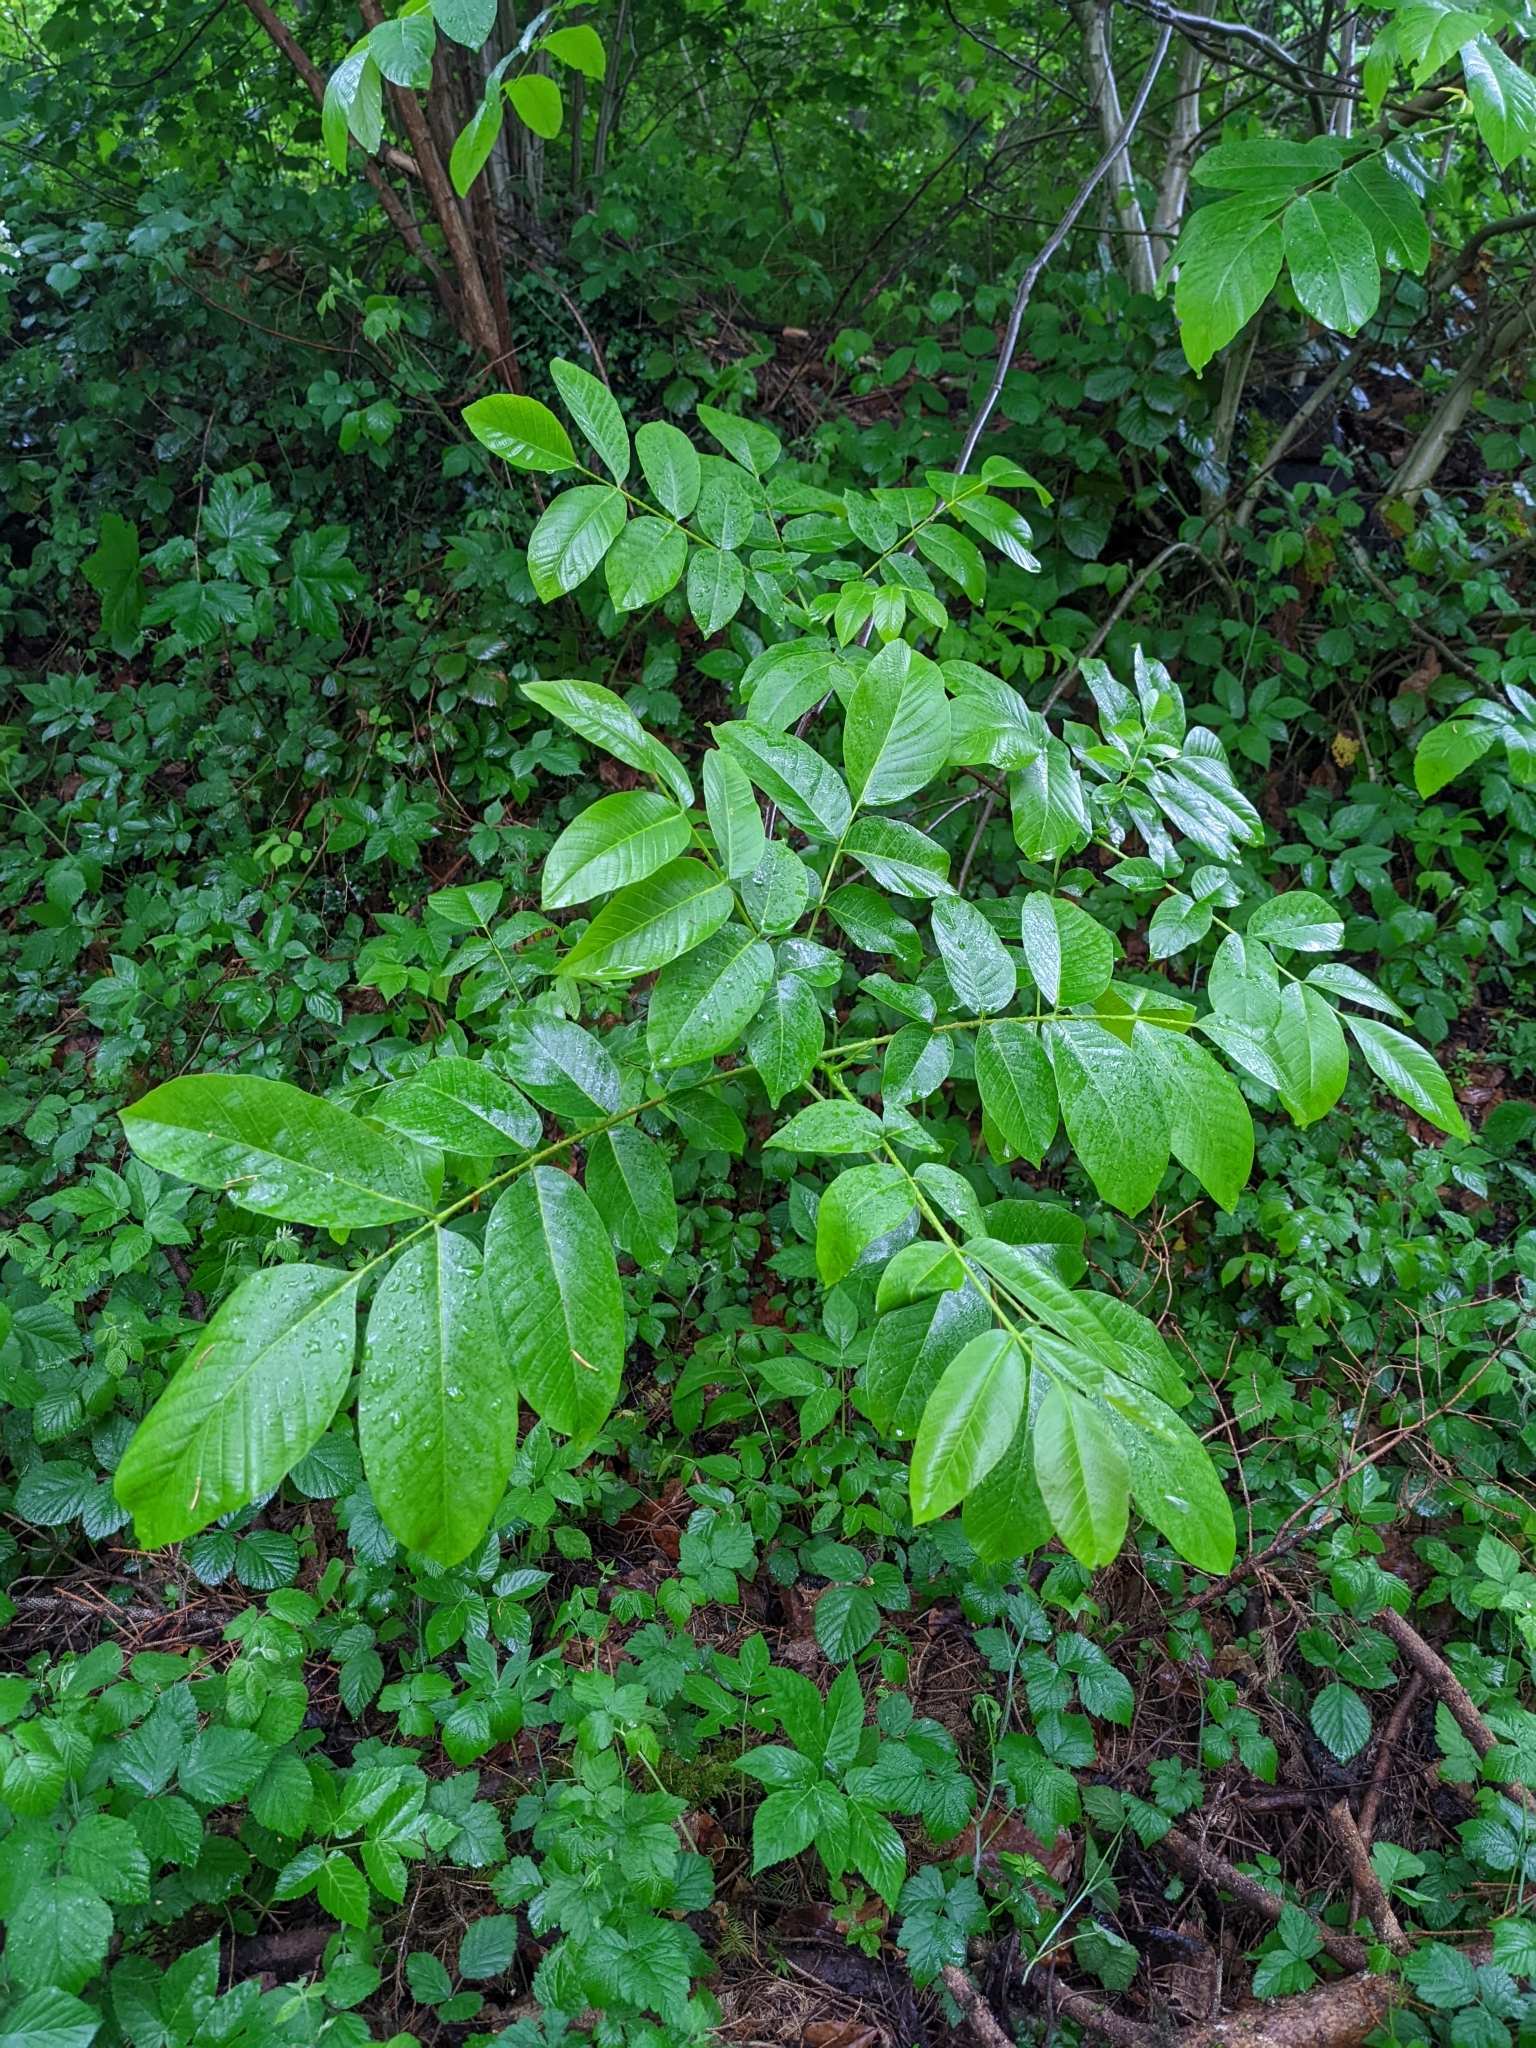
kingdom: Plantae
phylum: Tracheophyta
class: Magnoliopsida
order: Fagales
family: Juglandaceae
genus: Juglans
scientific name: Juglans regia
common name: Walnut
